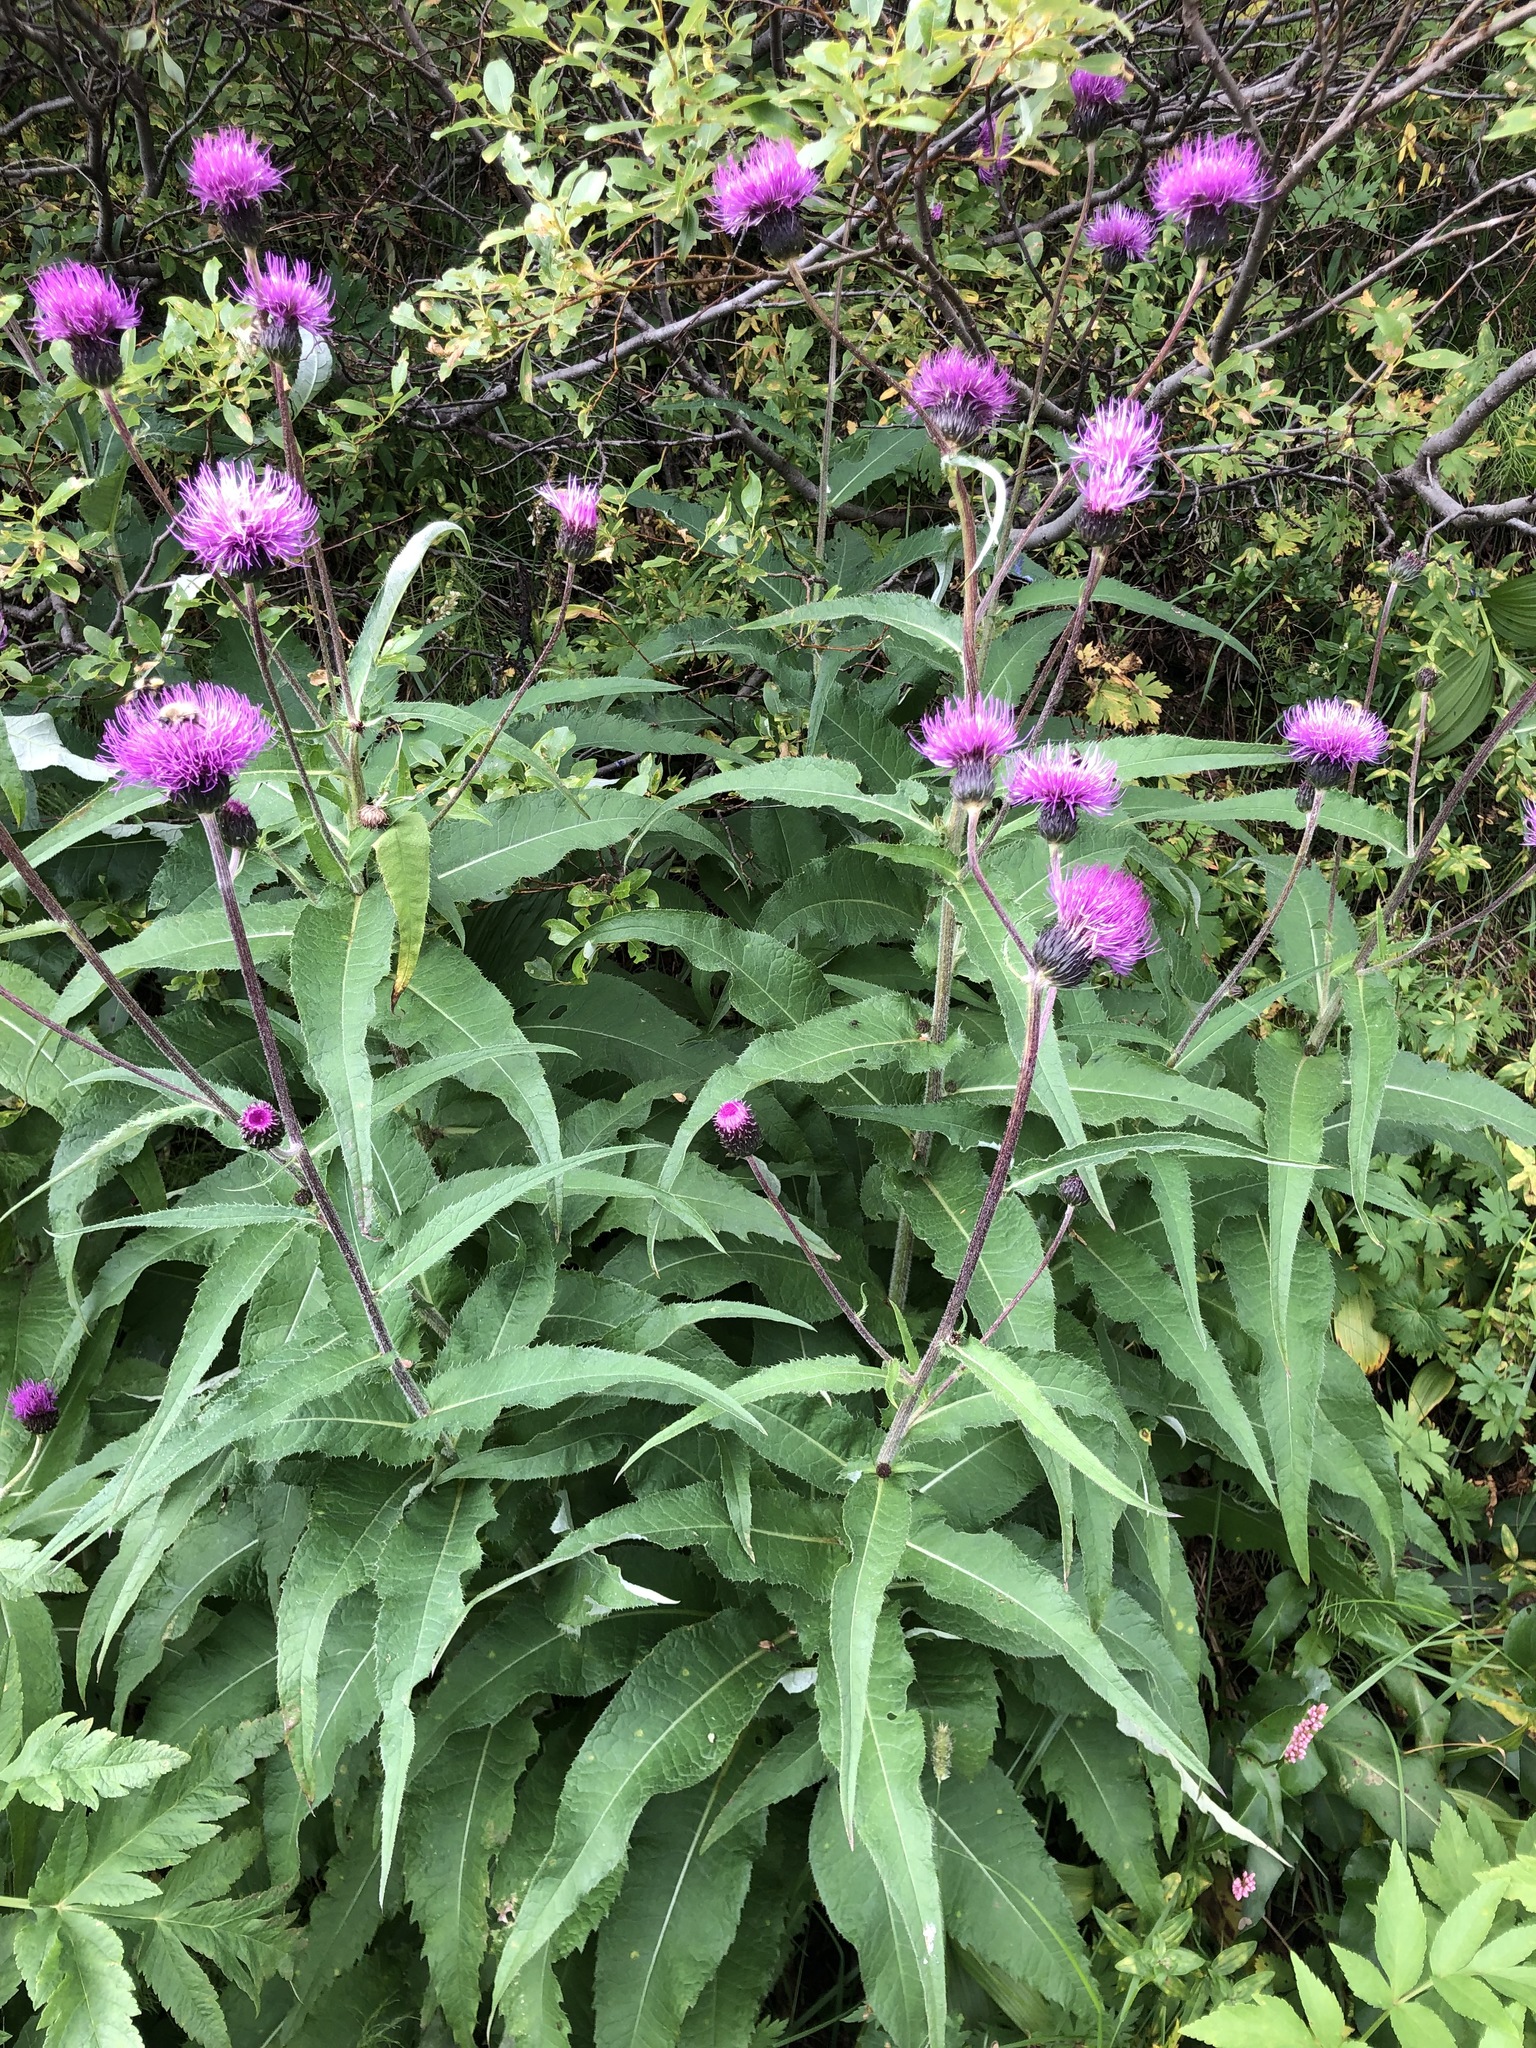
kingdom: Plantae
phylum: Tracheophyta
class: Magnoliopsida
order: Asterales
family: Asteraceae
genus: Cirsium
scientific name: Cirsium helenioides
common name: Melancholy thistle
